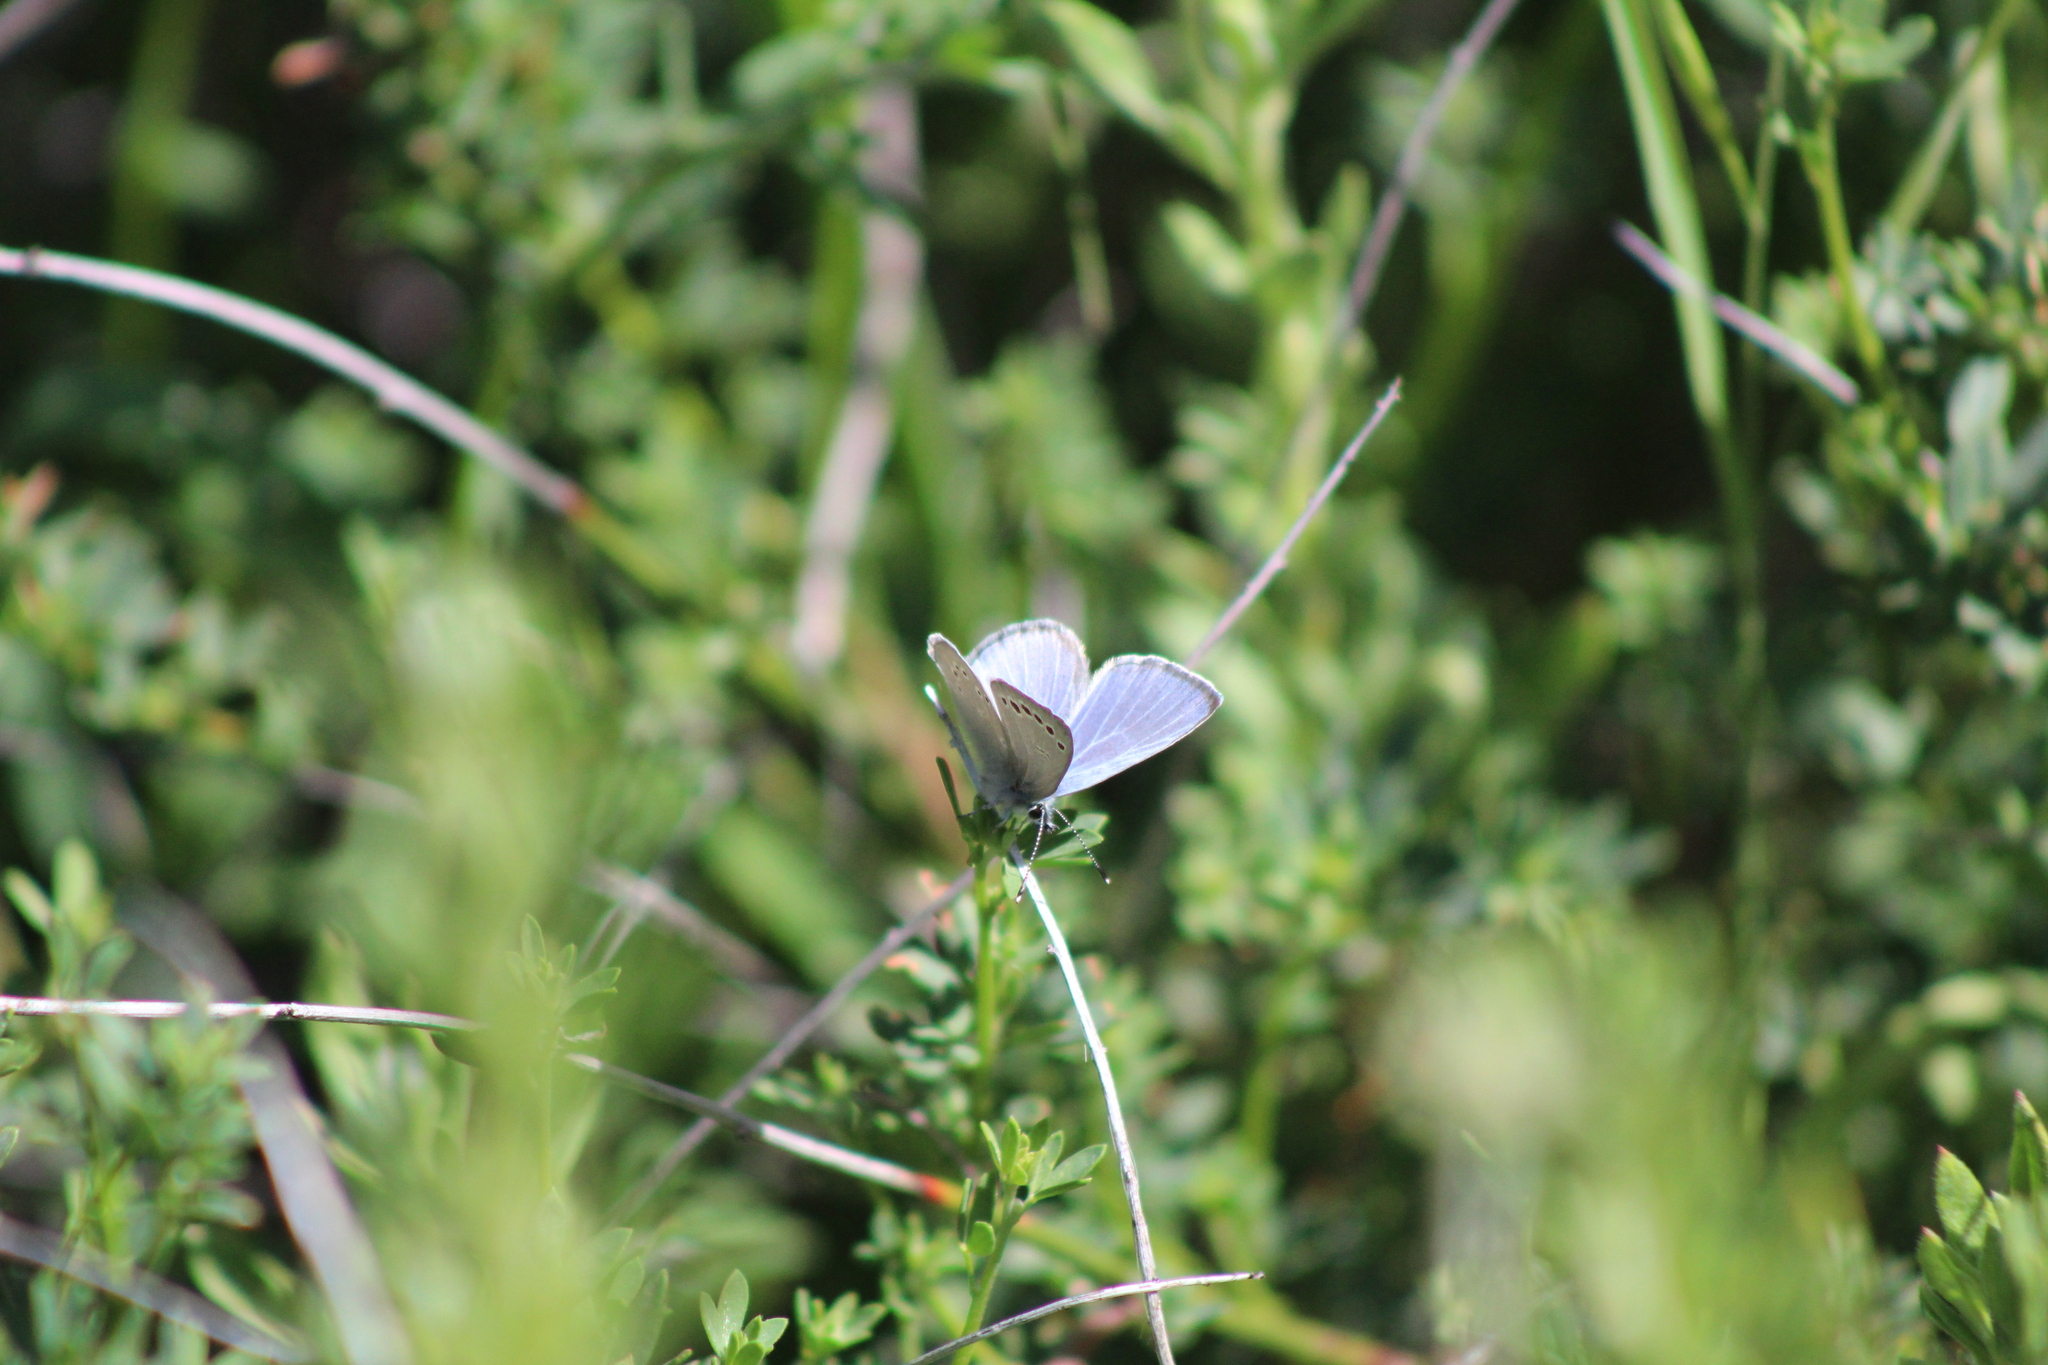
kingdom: Animalia
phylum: Arthropoda
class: Insecta
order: Lepidoptera
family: Lycaenidae
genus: Glaucopsyche
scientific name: Glaucopsyche lygdamus
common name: Silvery blue
